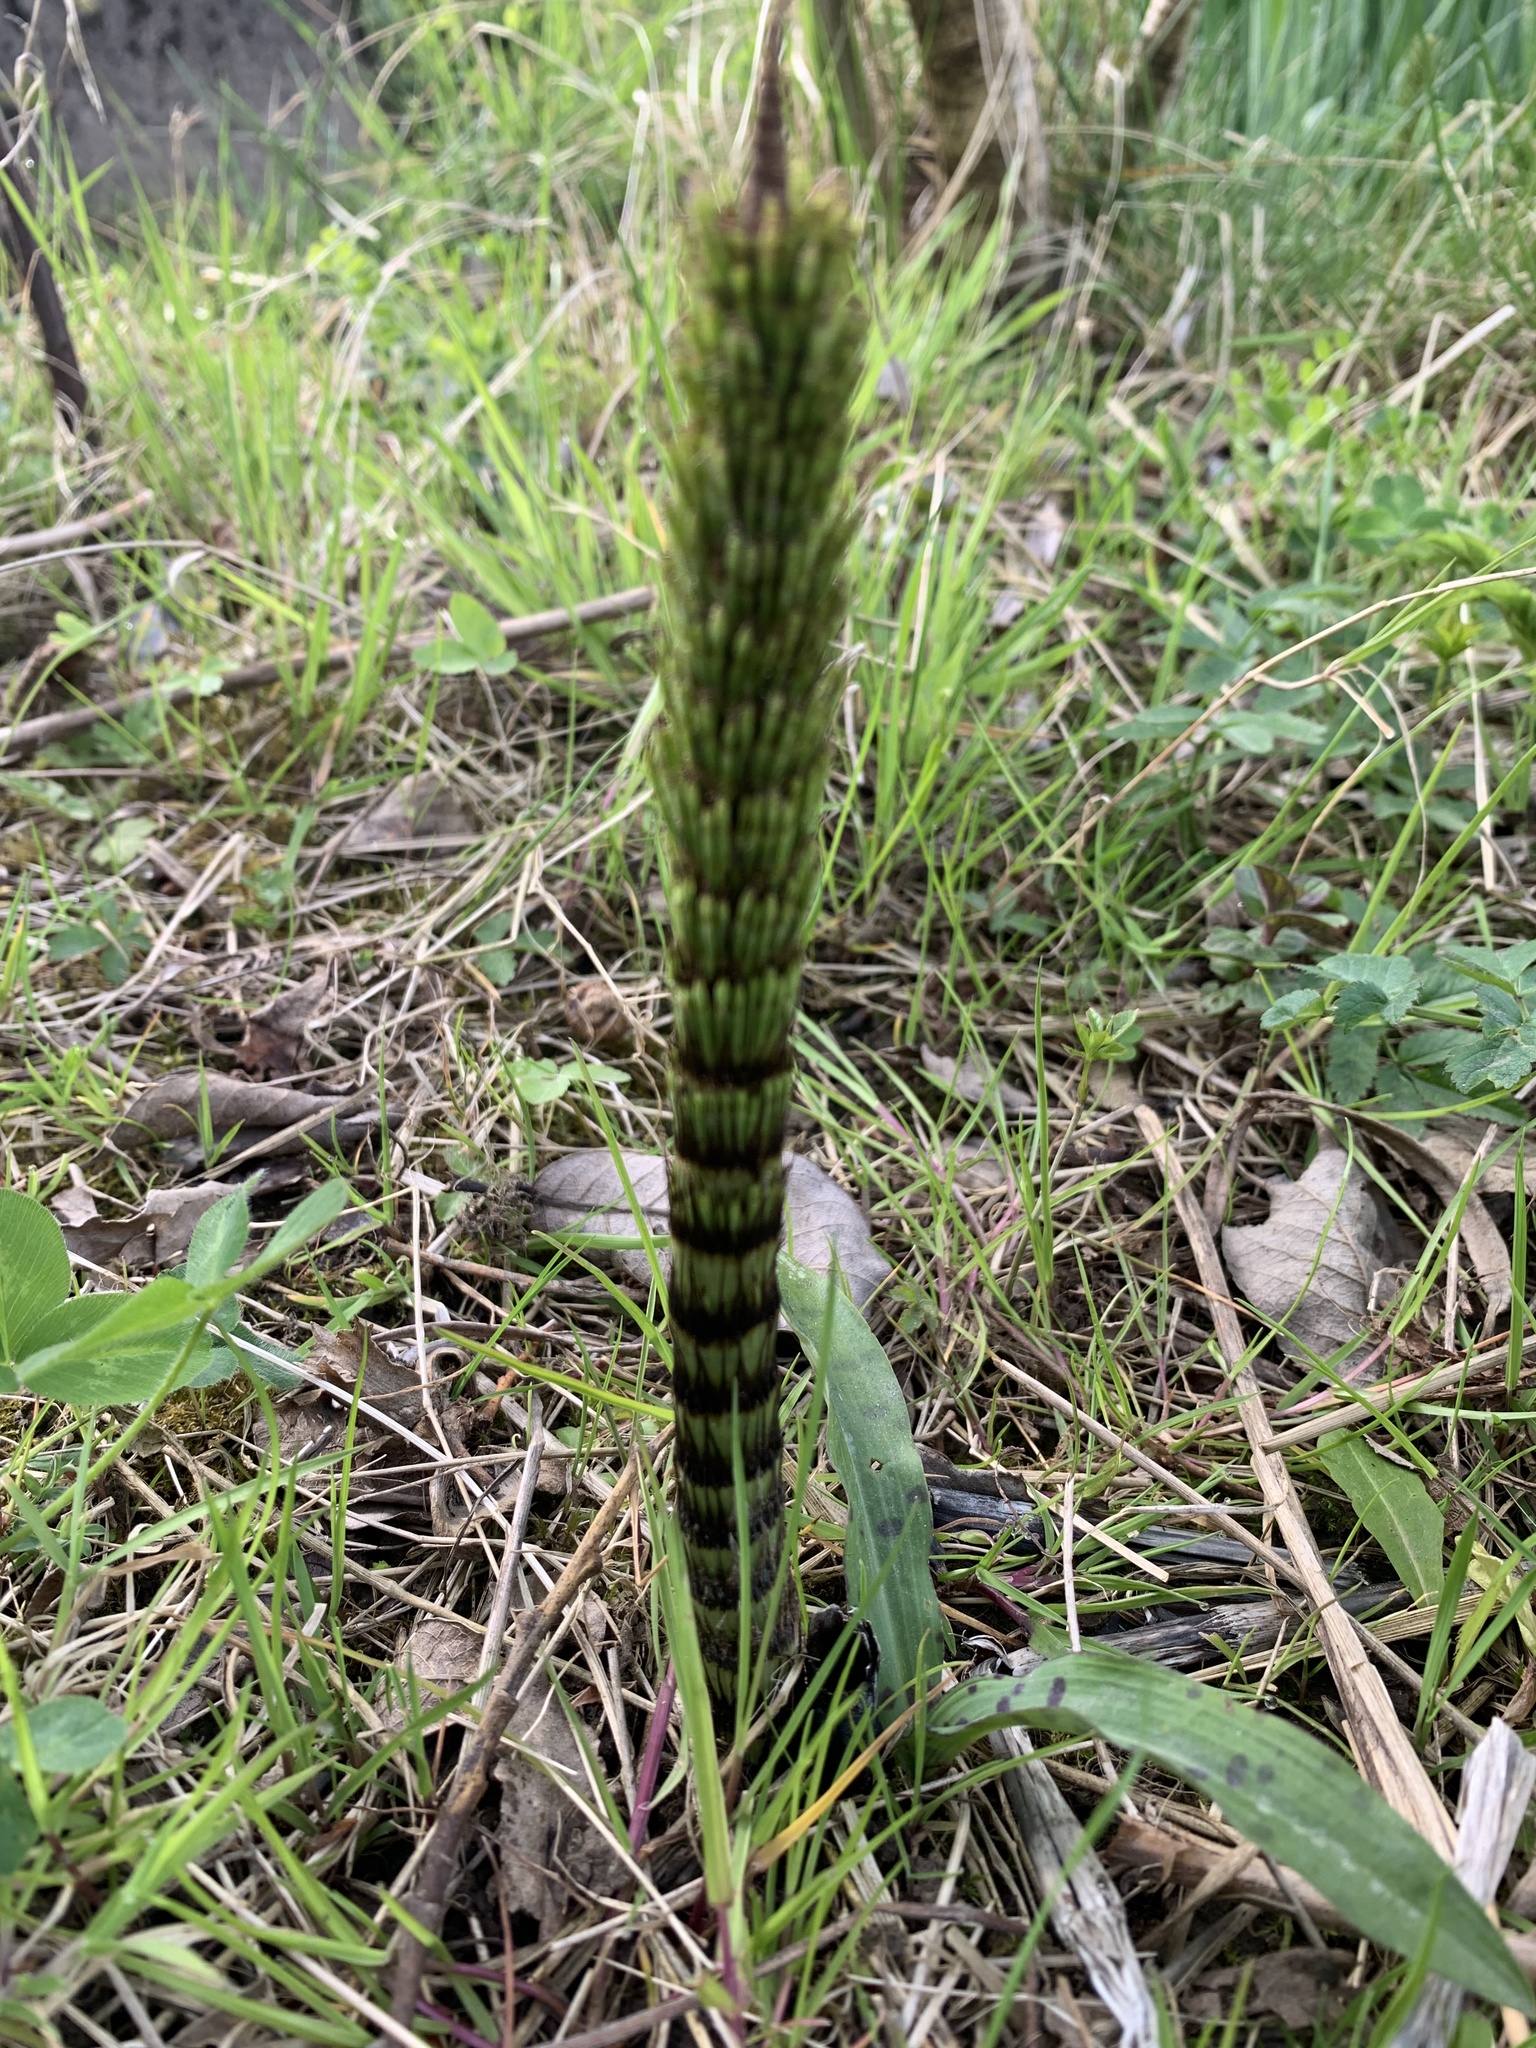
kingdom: Plantae
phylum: Tracheophyta
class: Polypodiopsida
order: Equisetales
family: Equisetaceae
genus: Equisetum
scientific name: Equisetum telmateia
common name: Great horsetail
